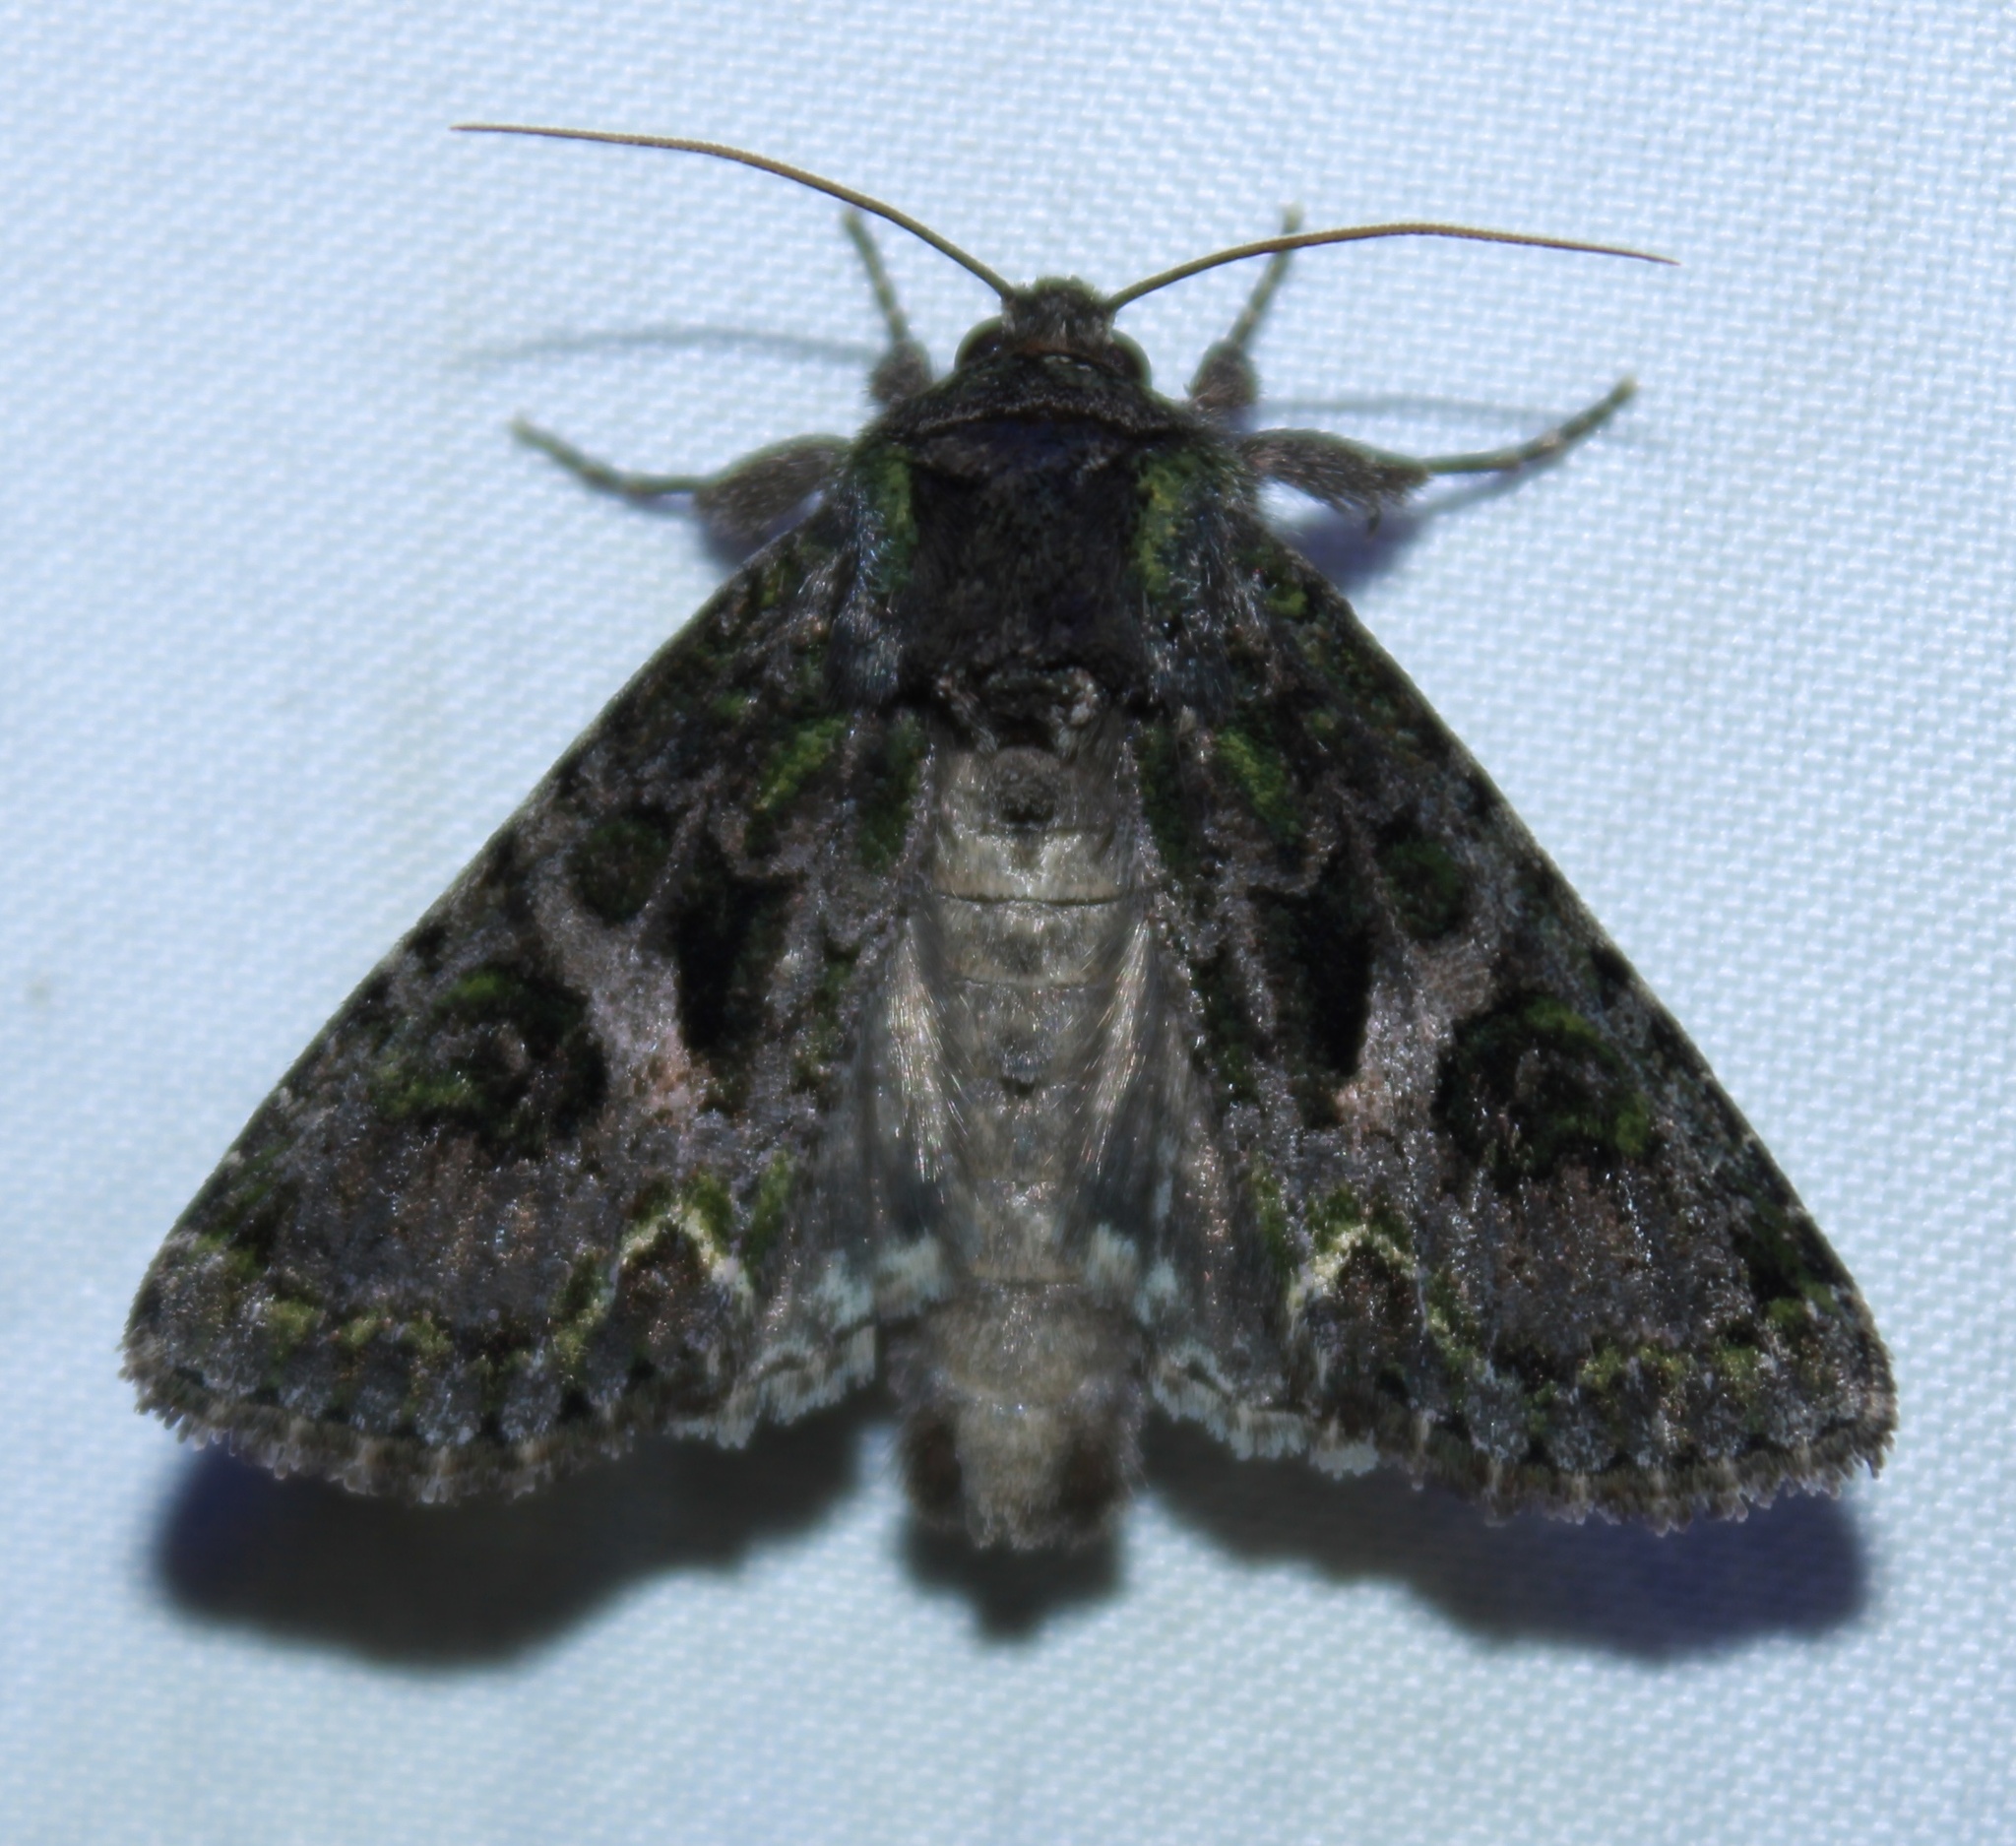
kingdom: Animalia
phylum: Arthropoda
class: Insecta
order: Lepidoptera
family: Noctuidae
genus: Trachea
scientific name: Trachea delicata
